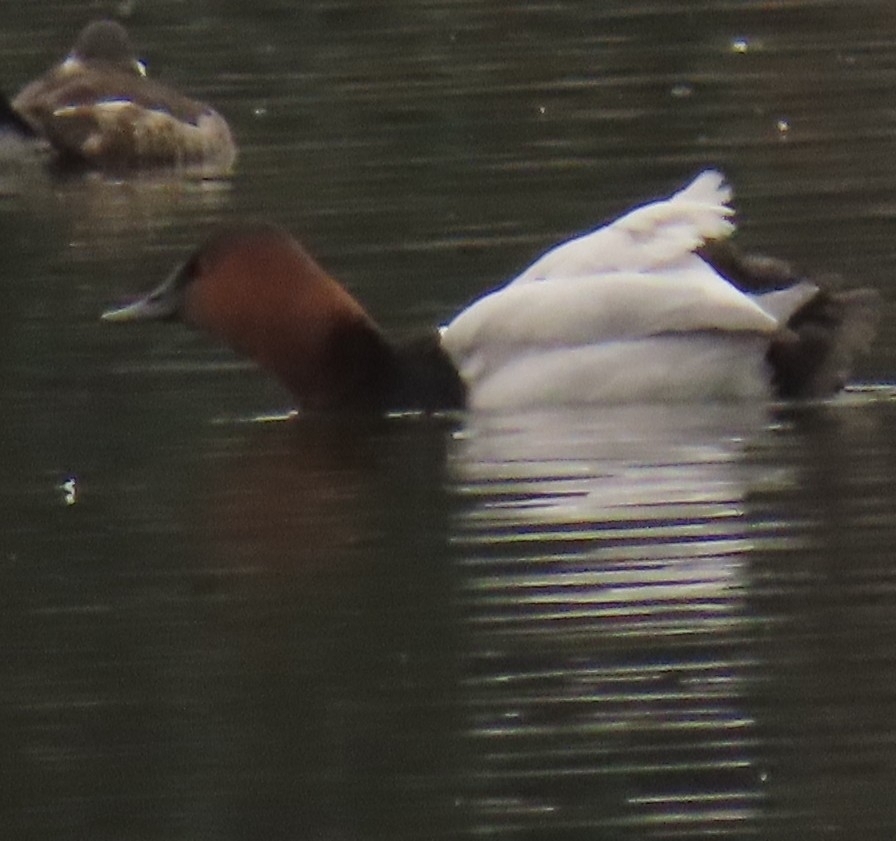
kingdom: Animalia
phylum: Chordata
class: Aves
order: Anseriformes
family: Anatidae
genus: Aythya
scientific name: Aythya valisineria
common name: Canvasback
